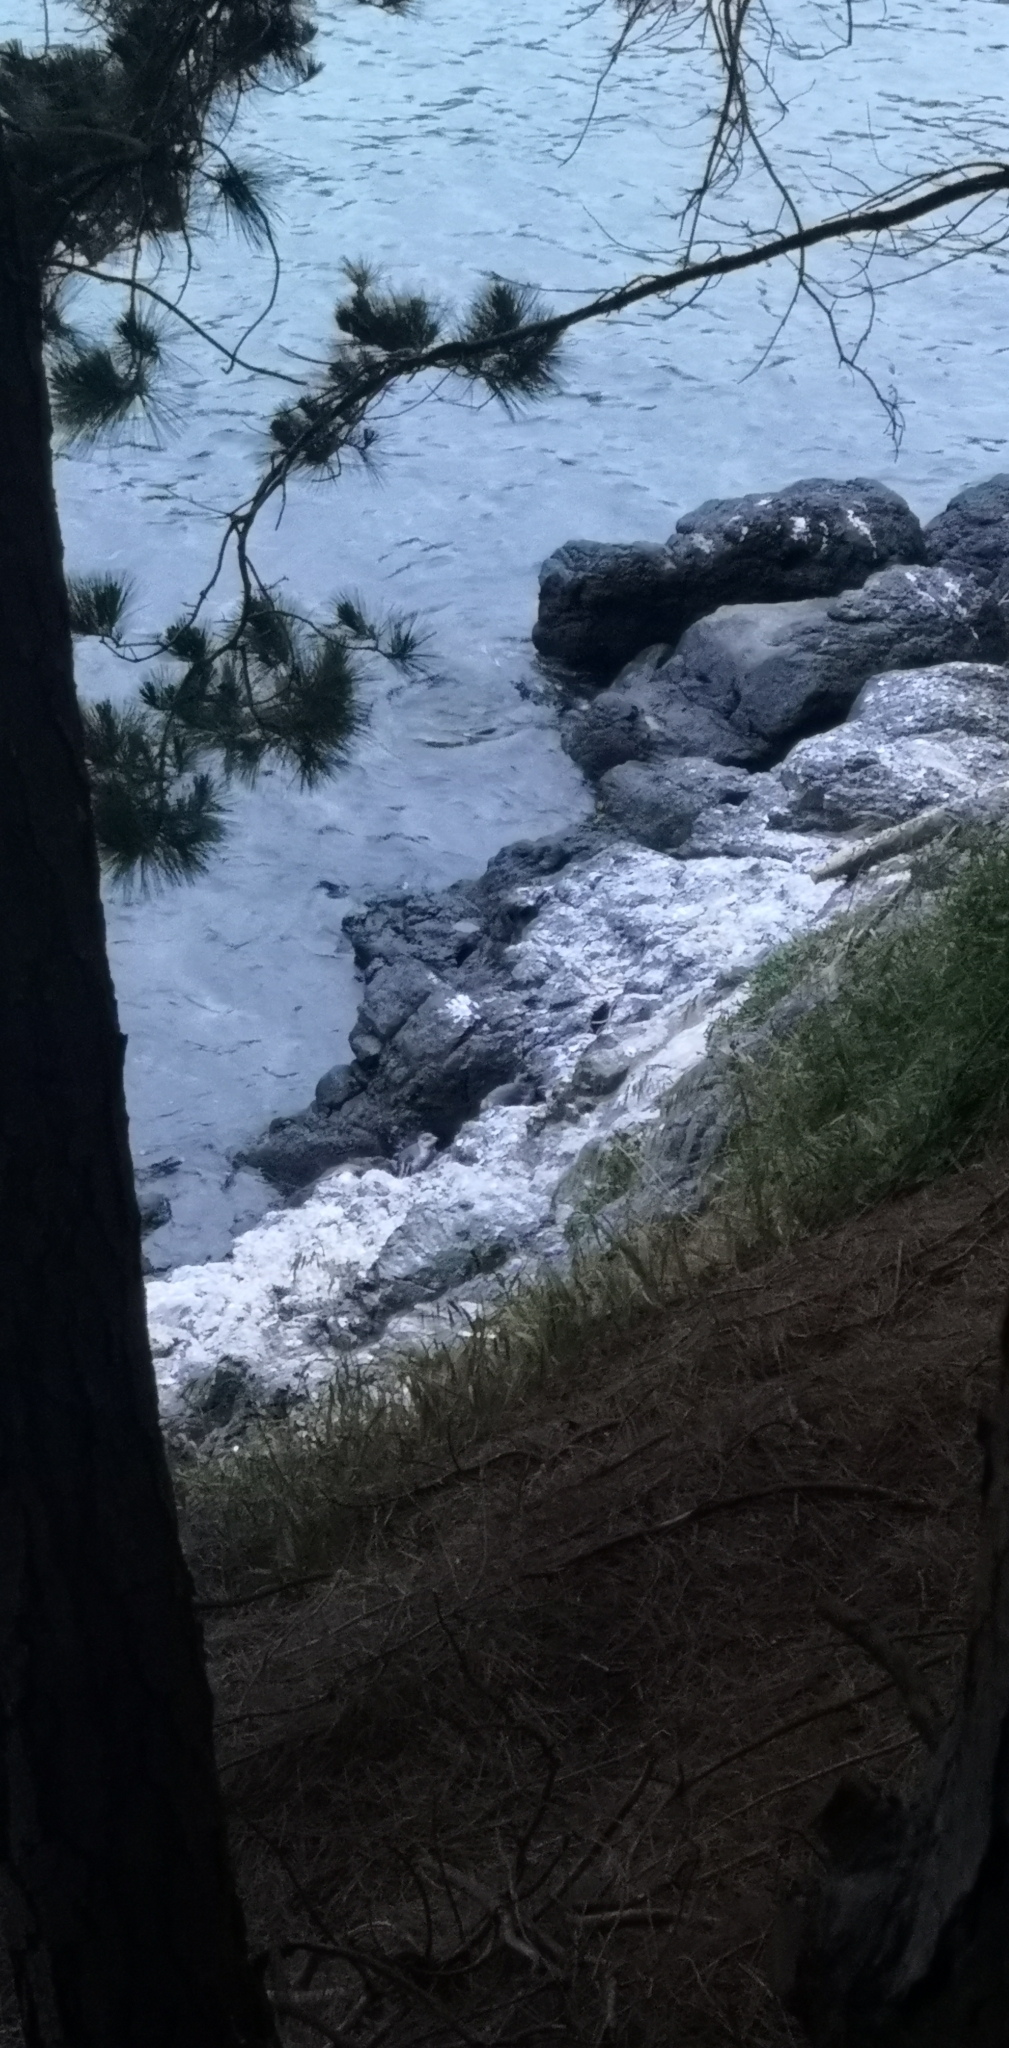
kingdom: Animalia
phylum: Chordata
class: Aves
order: Sphenisciformes
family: Spheniscidae
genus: Eudyptula
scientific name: Eudyptula minor
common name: Little penguin
